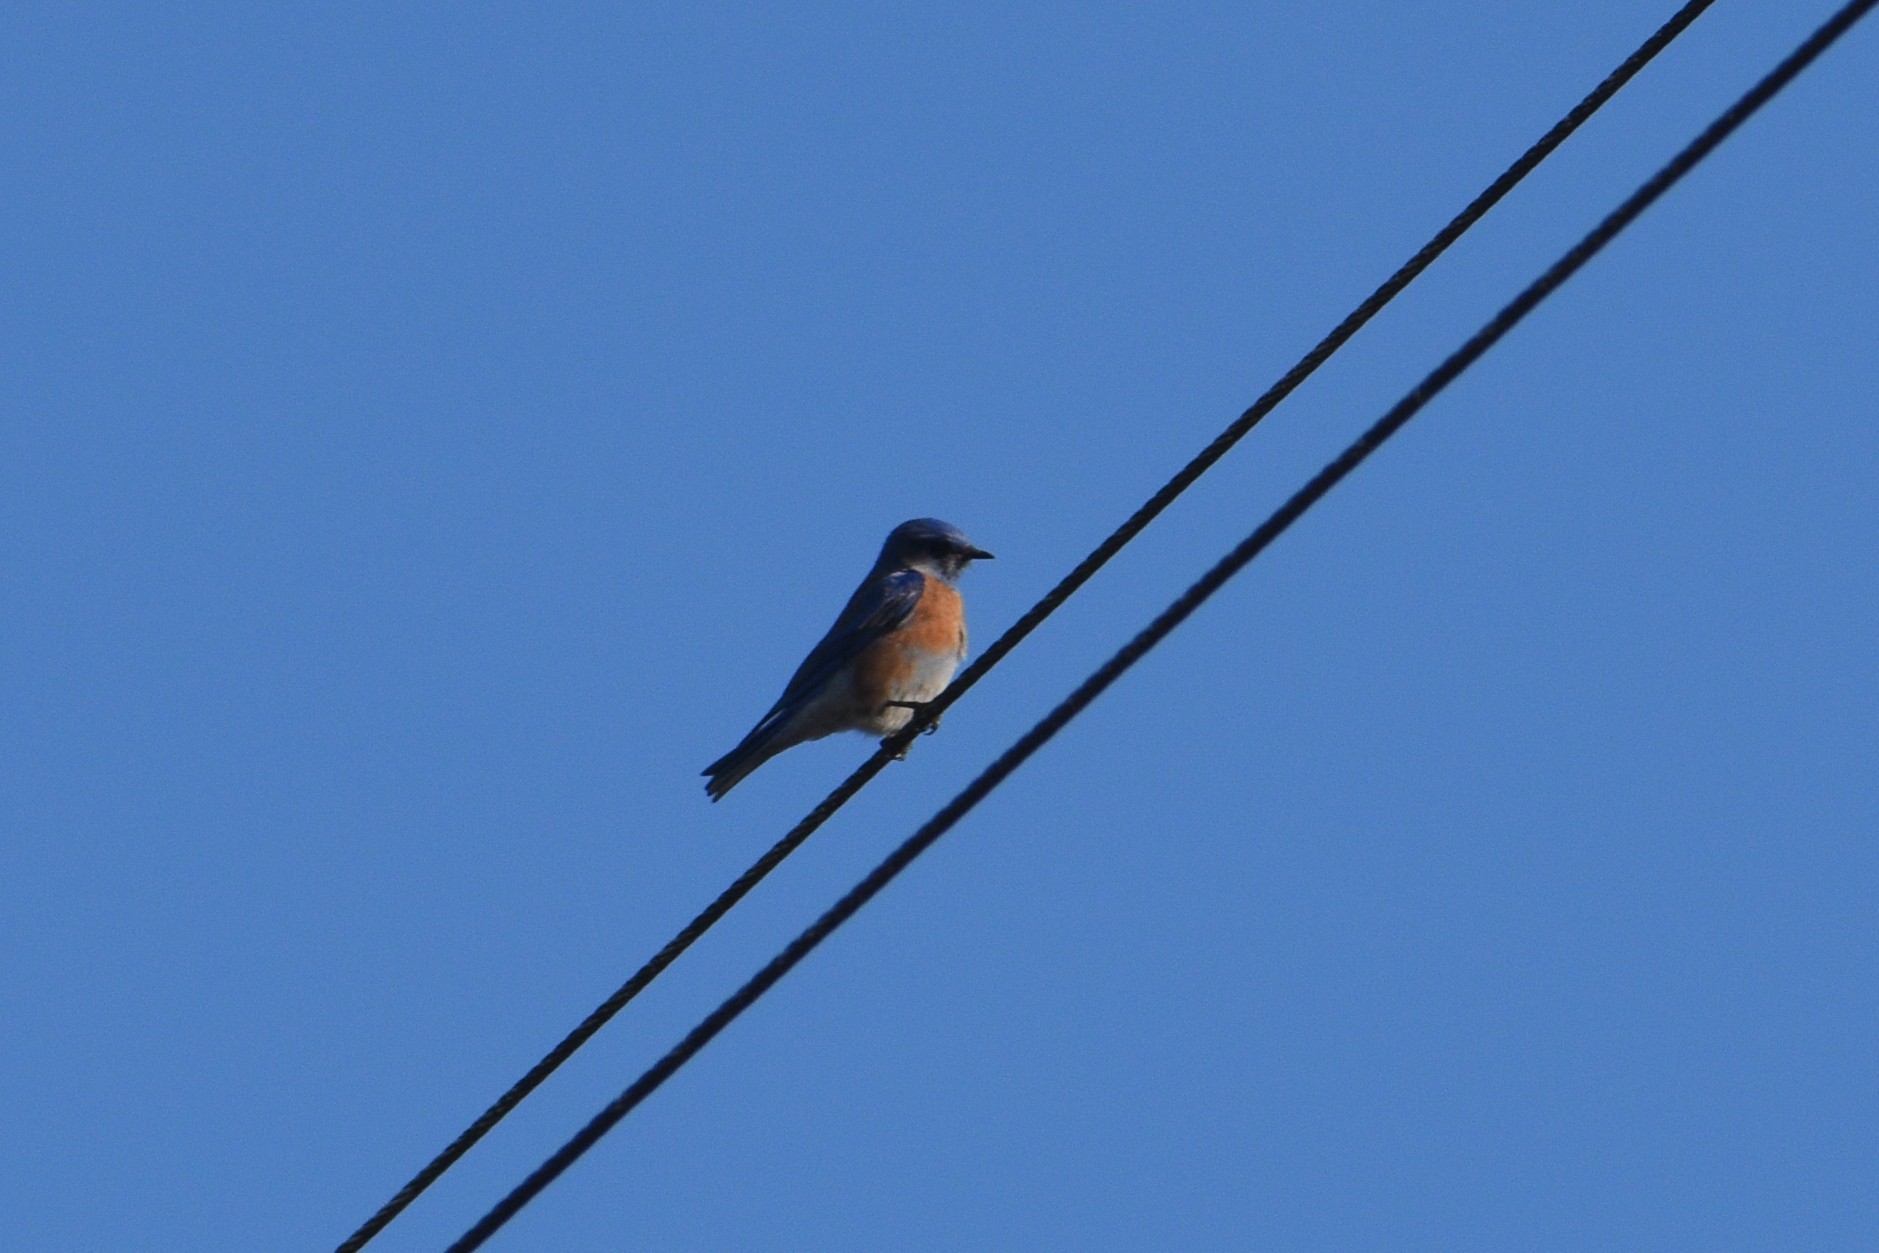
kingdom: Animalia
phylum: Chordata
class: Aves
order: Passeriformes
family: Turdidae
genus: Sialia
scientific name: Sialia mexicana
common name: Western bluebird
